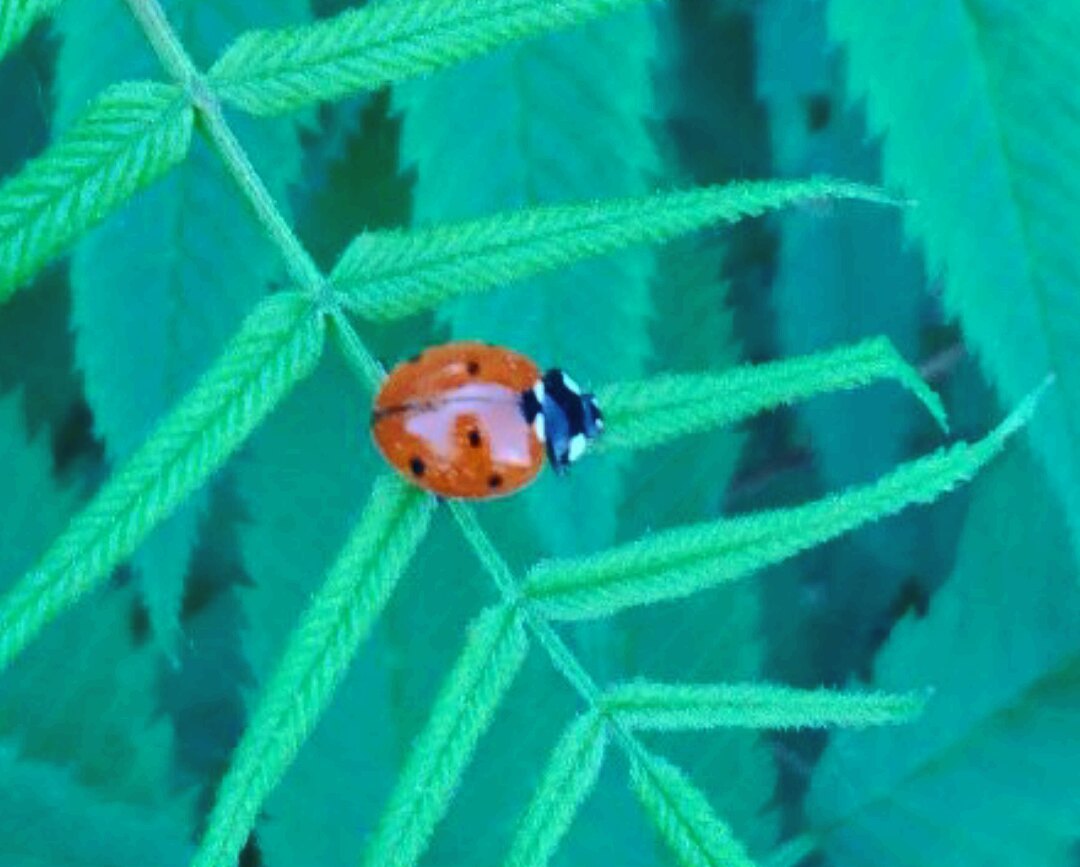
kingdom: Animalia
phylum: Arthropoda
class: Insecta
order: Coleoptera
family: Coccinellidae
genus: Coccinella
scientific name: Coccinella septempunctata
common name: Sevenspotted lady beetle
